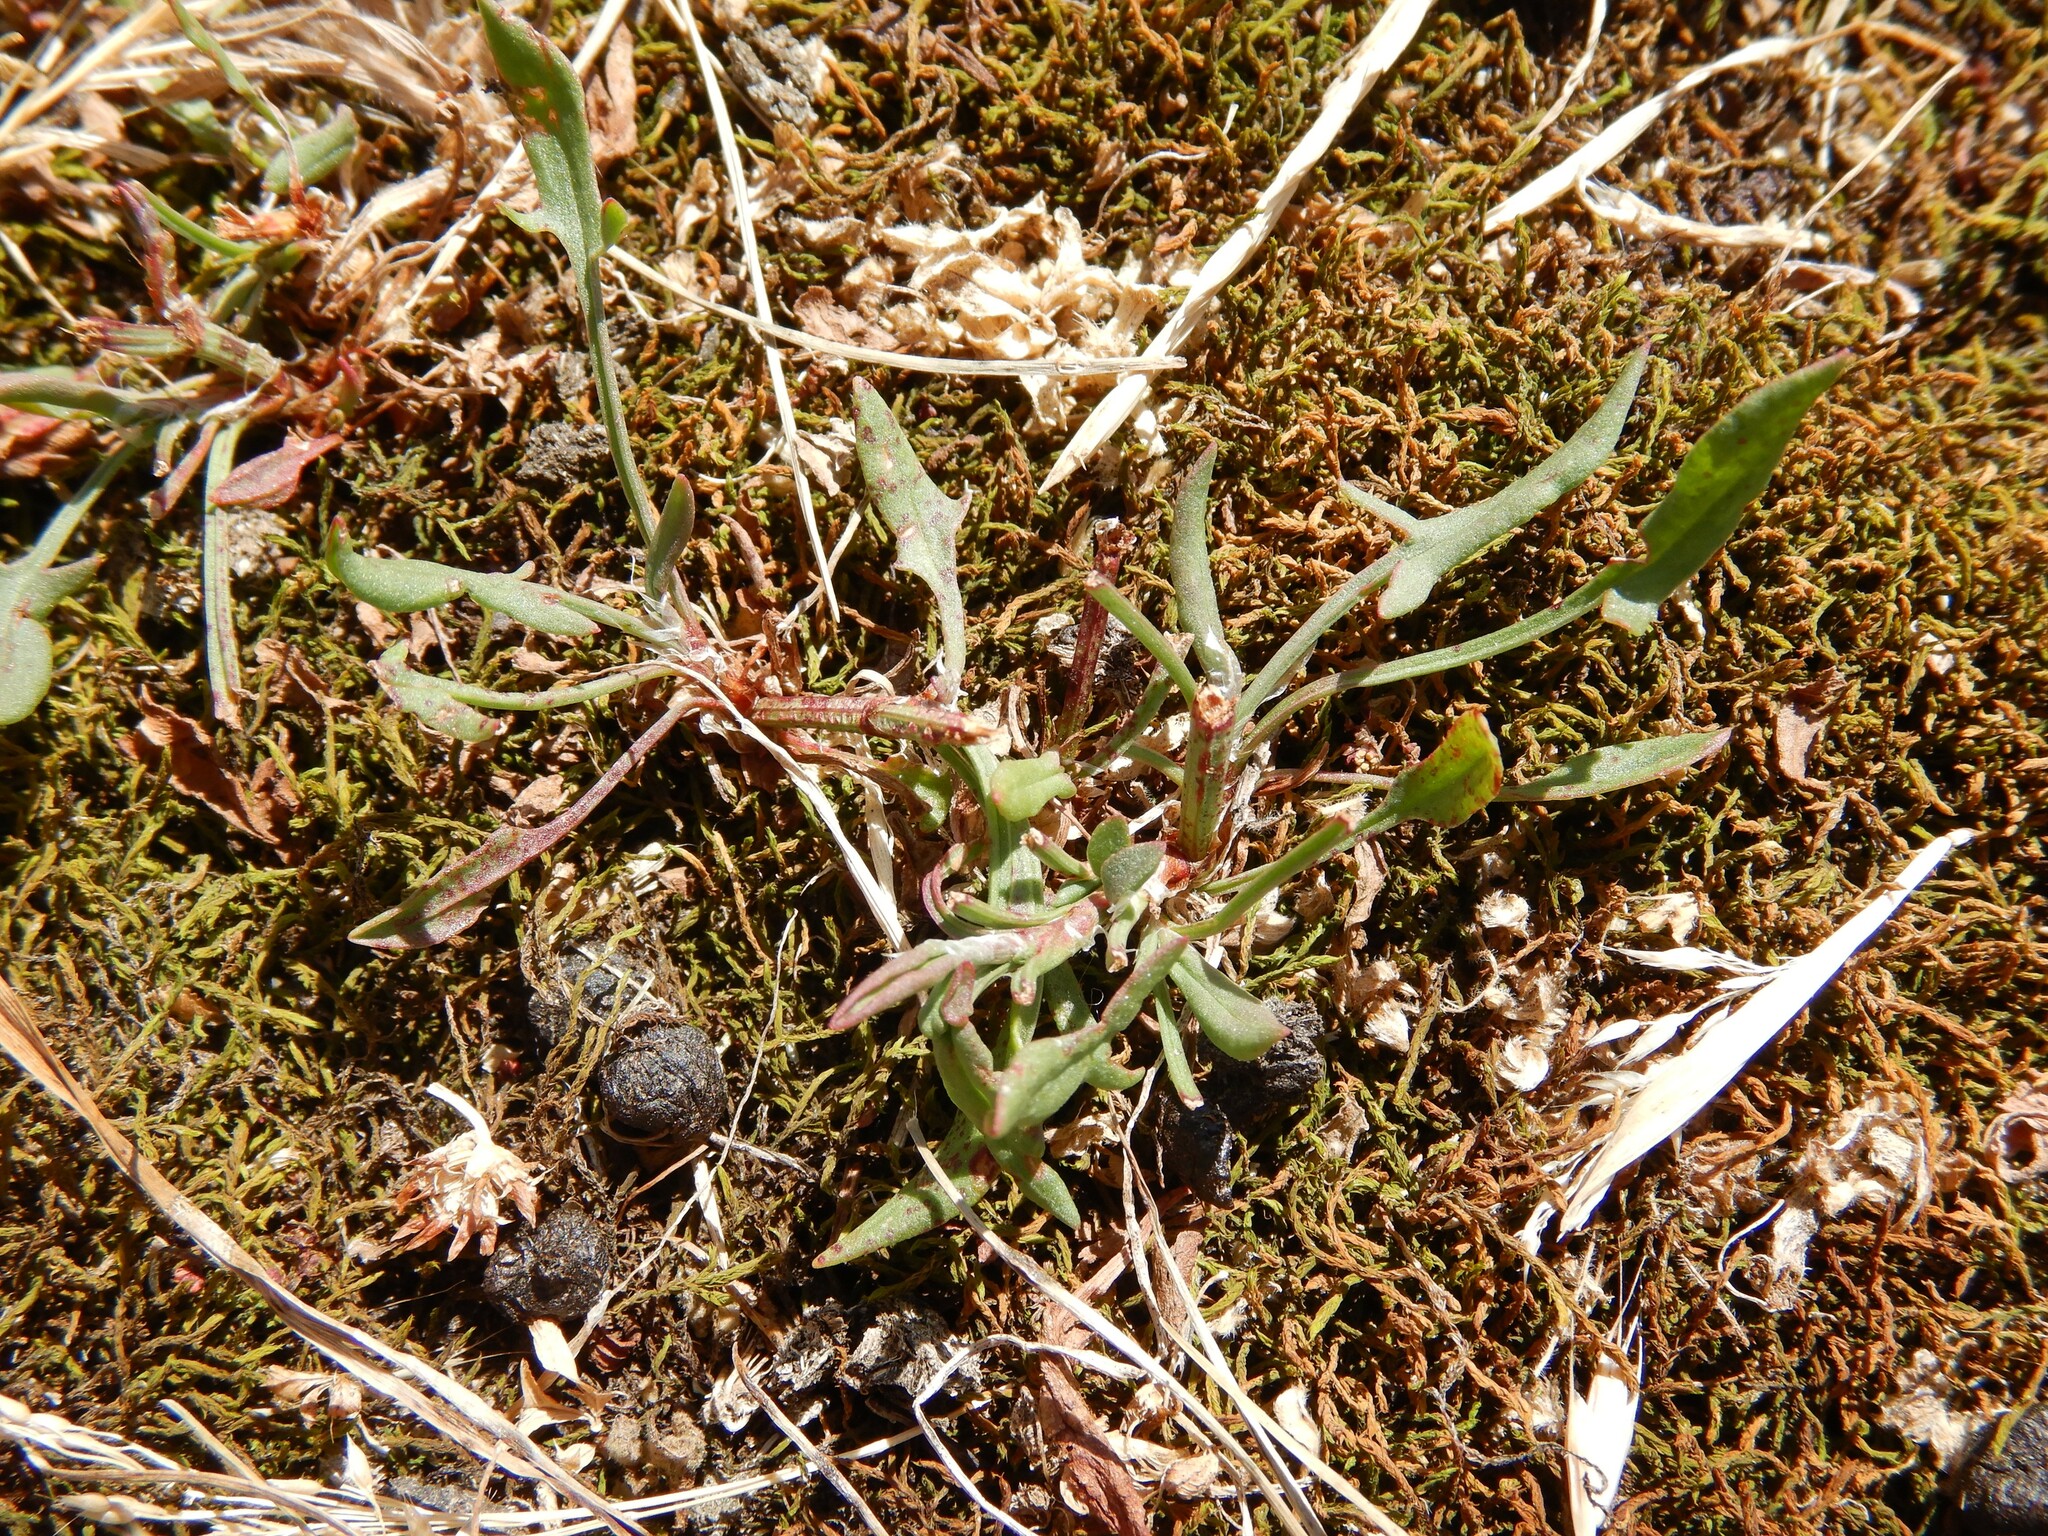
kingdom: Plantae
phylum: Tracheophyta
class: Magnoliopsida
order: Caryophyllales
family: Polygonaceae
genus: Rumex
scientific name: Rumex acetosella
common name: Common sheep sorrel
